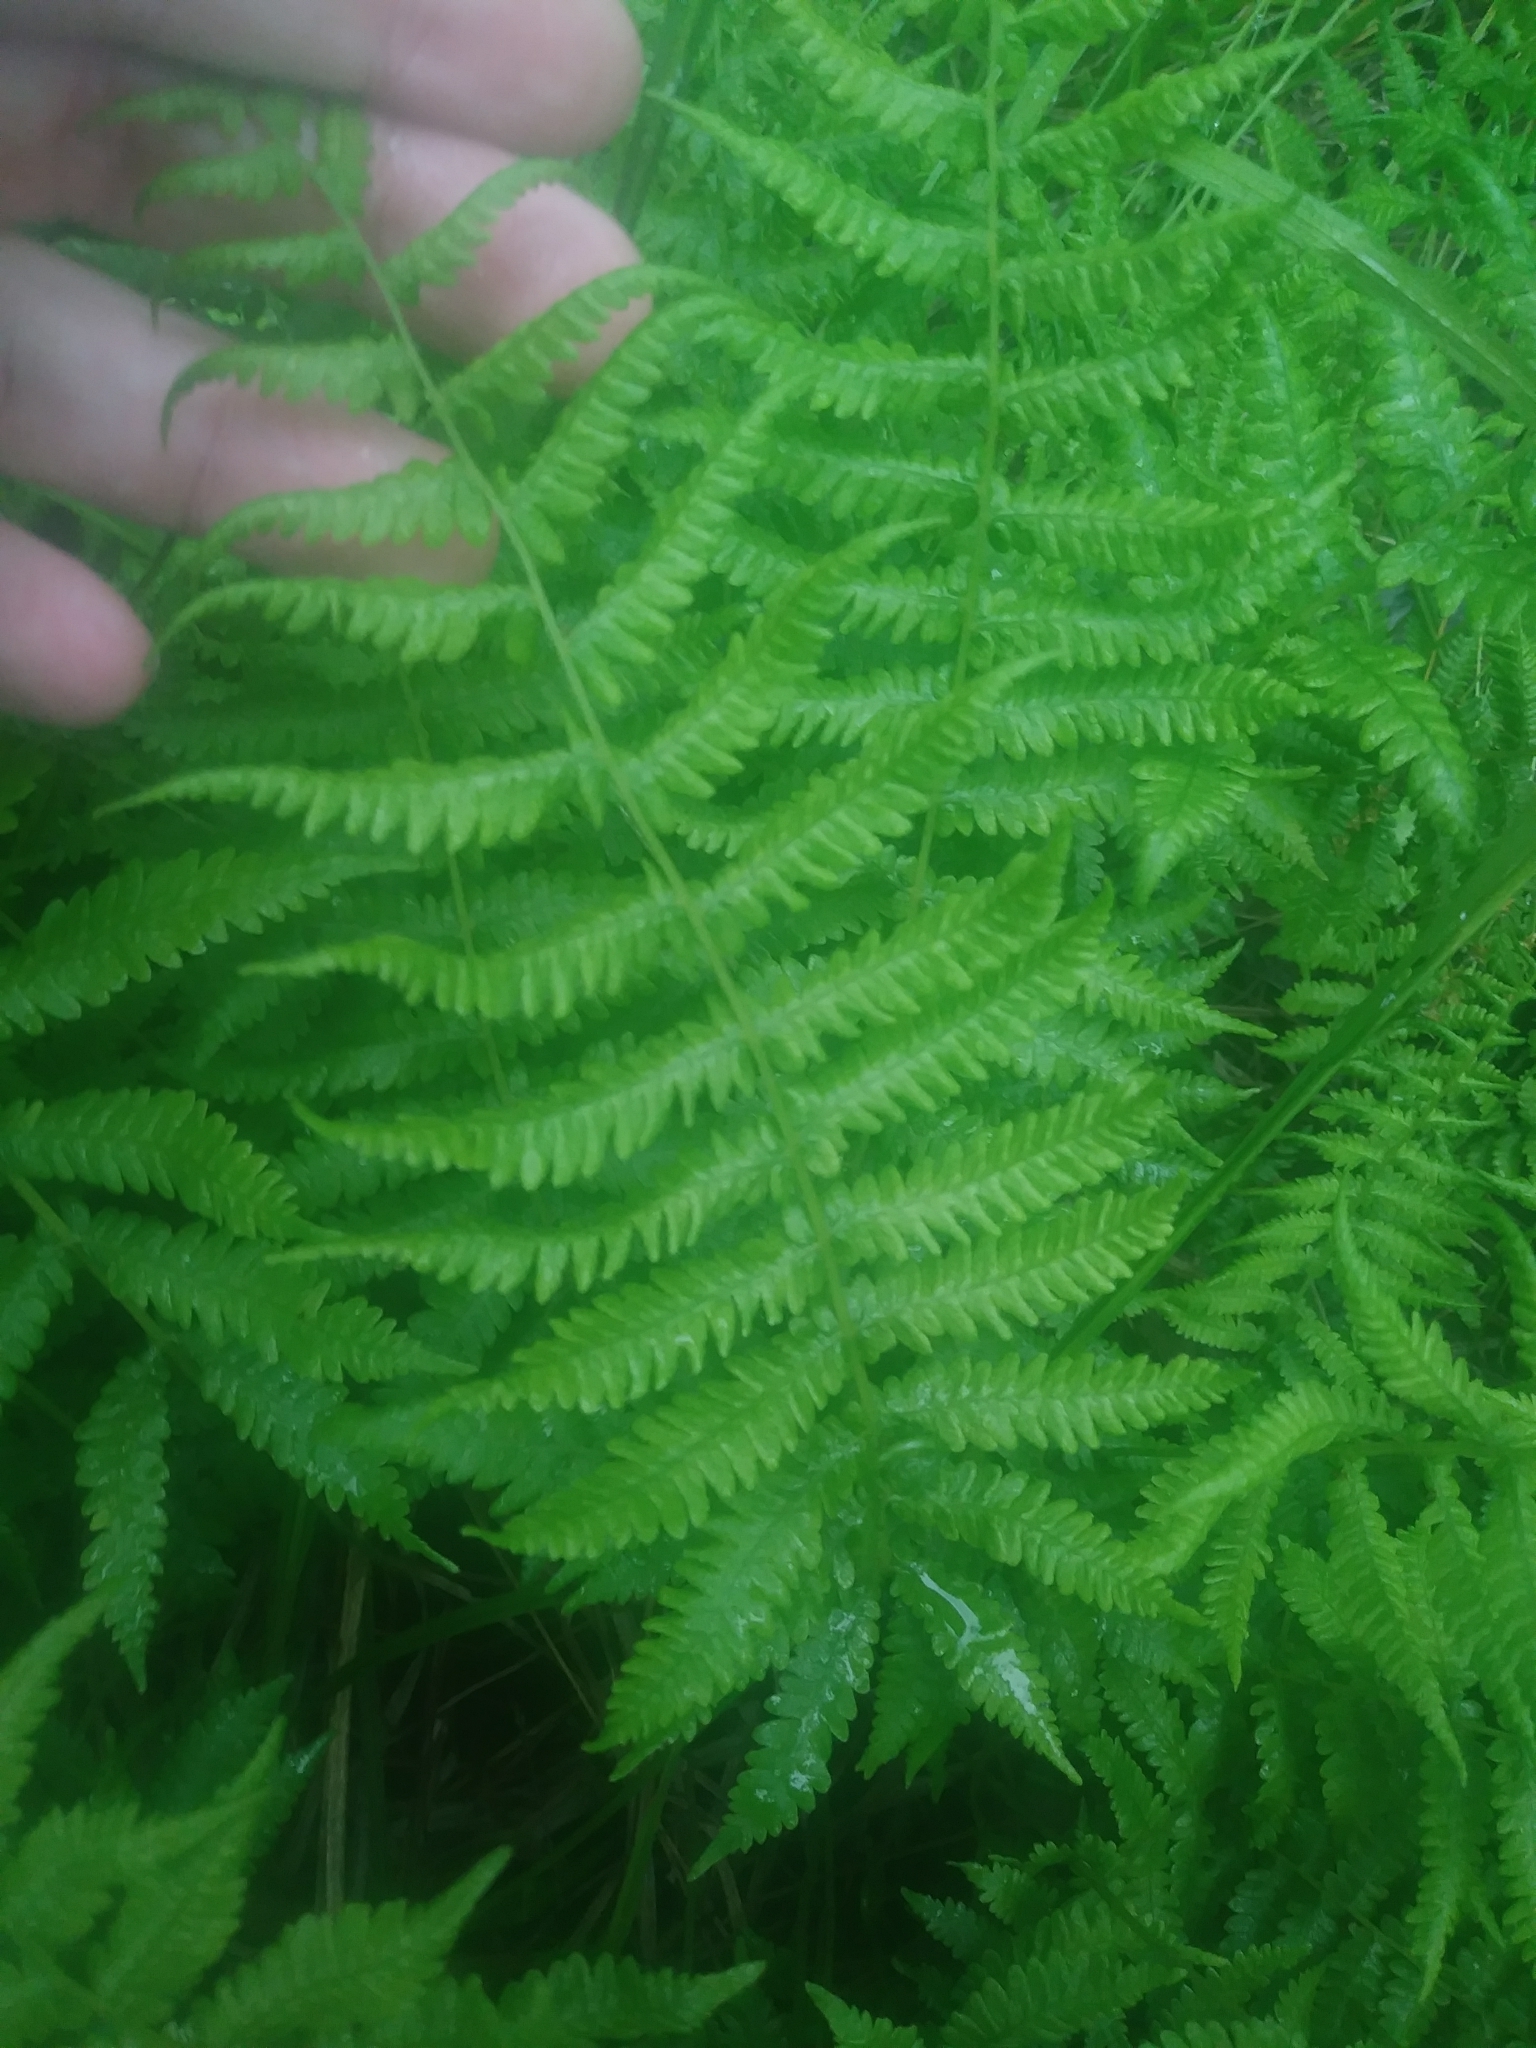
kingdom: Plantae
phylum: Tracheophyta
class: Polypodiopsida
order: Polypodiales
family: Thelypteridaceae
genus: Coryphopteris
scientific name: Coryphopteris simulata
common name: Bog fern
